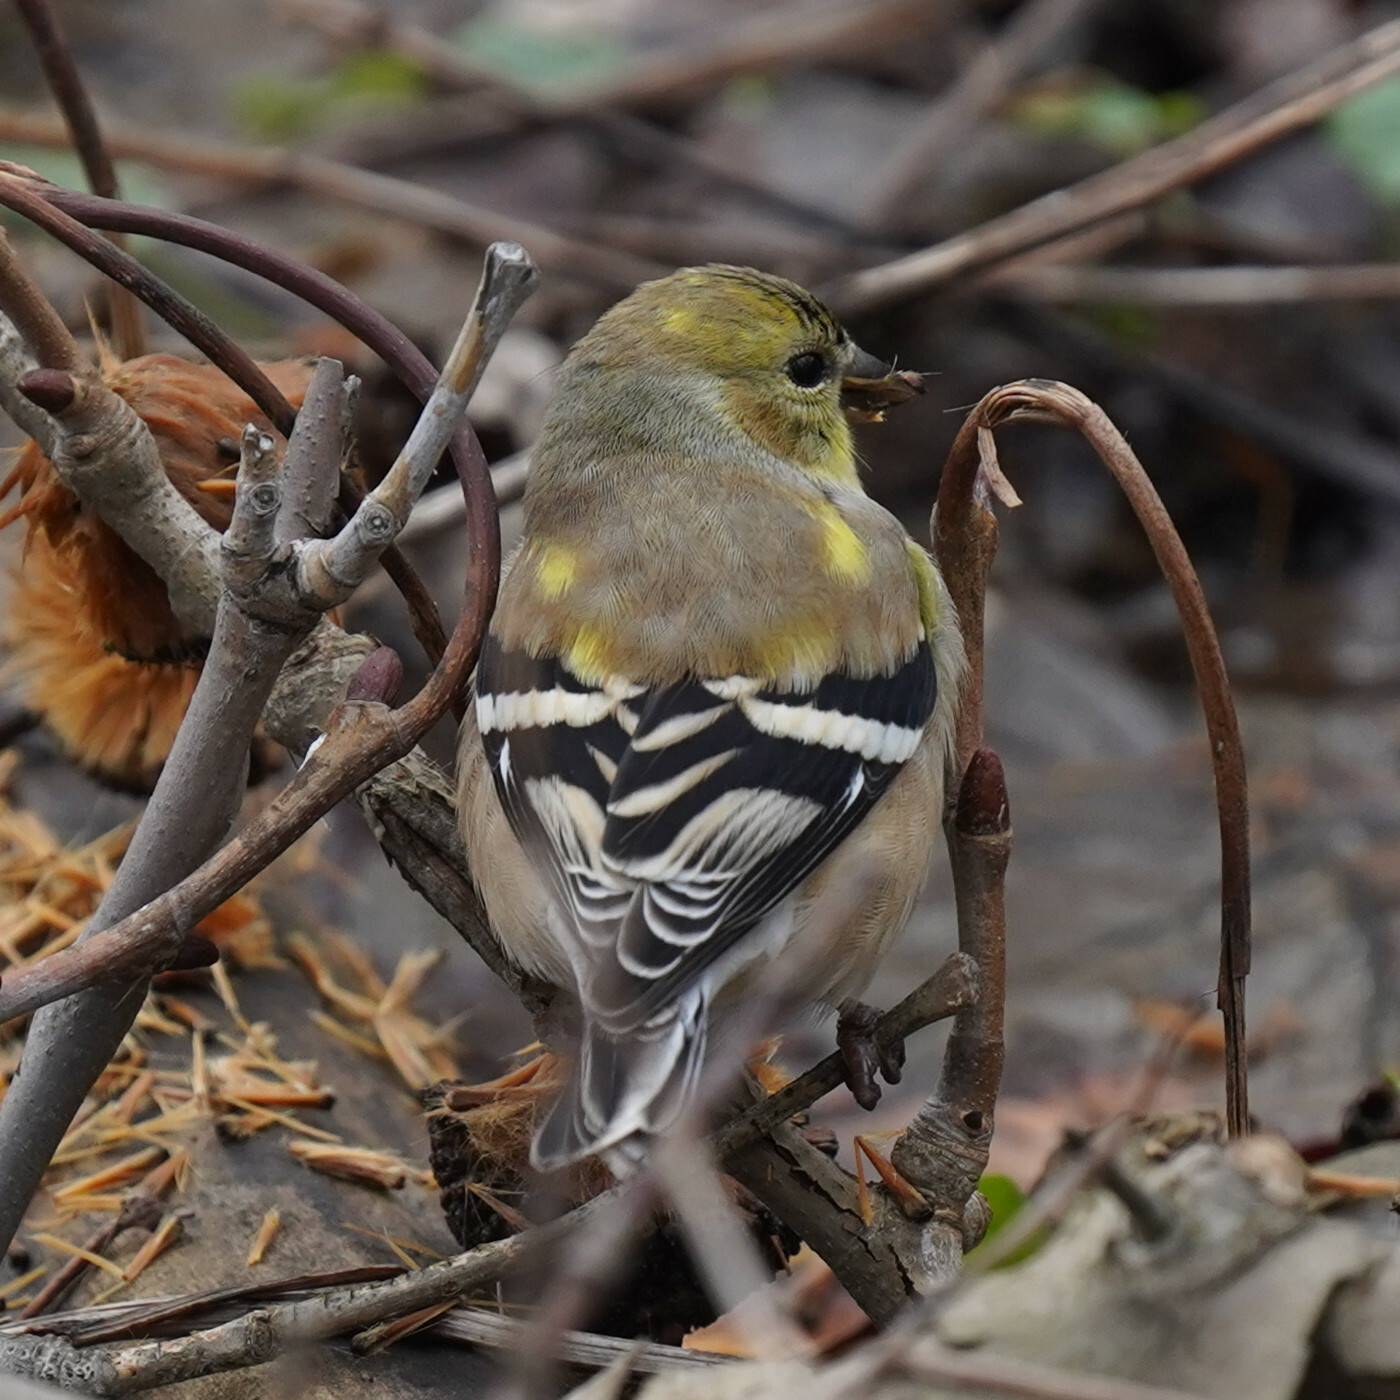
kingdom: Animalia
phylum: Chordata
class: Aves
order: Passeriformes
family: Fringillidae
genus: Spinus
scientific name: Spinus tristis
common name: American goldfinch
